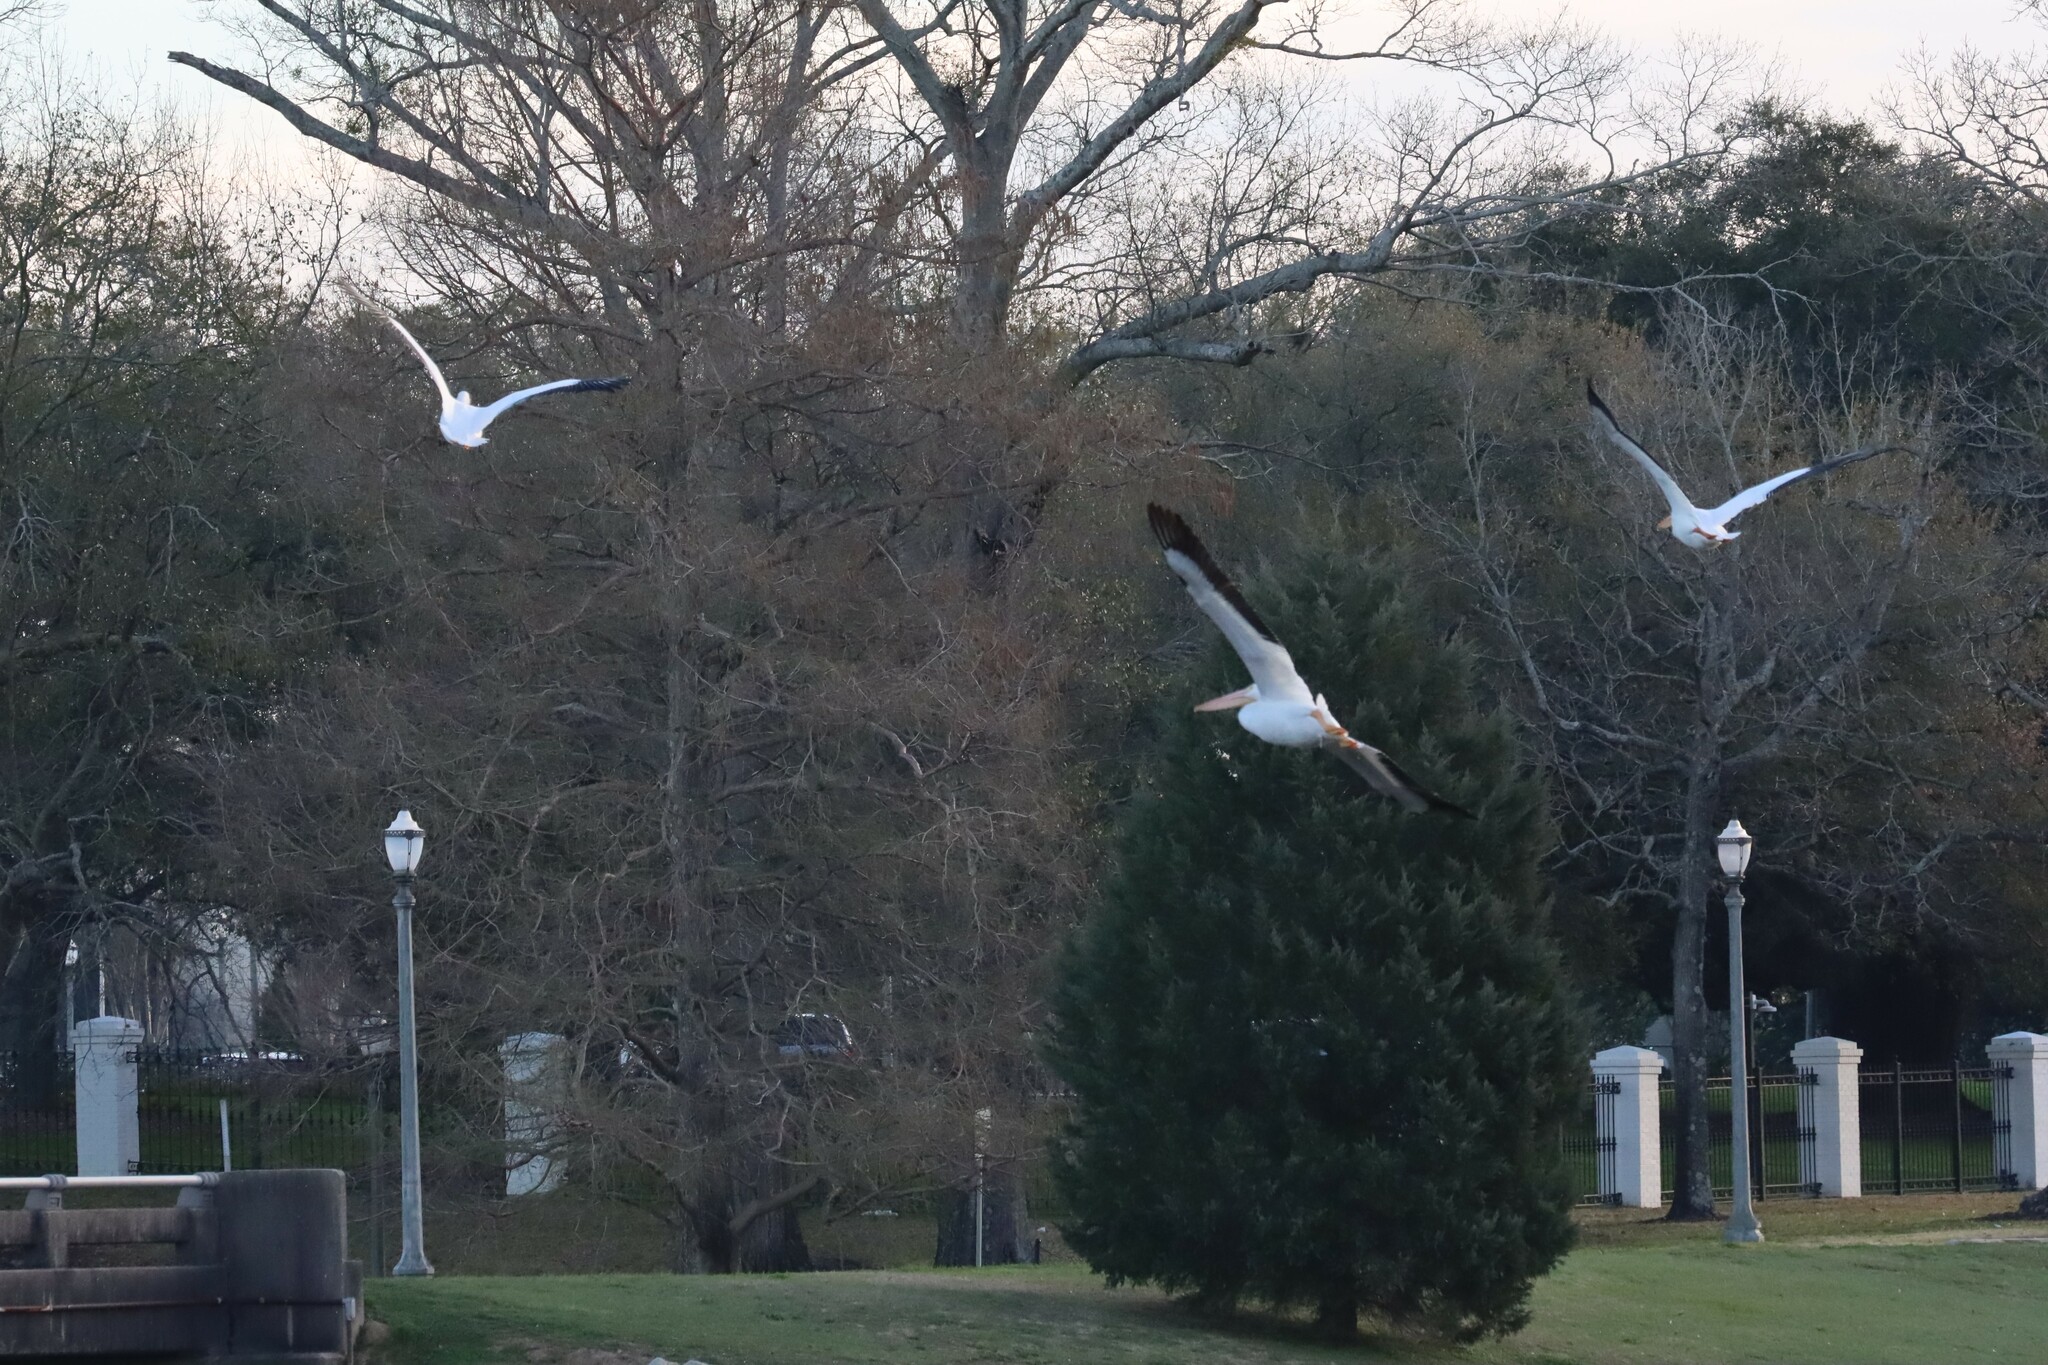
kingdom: Animalia
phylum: Chordata
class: Aves
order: Pelecaniformes
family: Pelecanidae
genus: Pelecanus
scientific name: Pelecanus erythrorhynchos
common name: American white pelican
